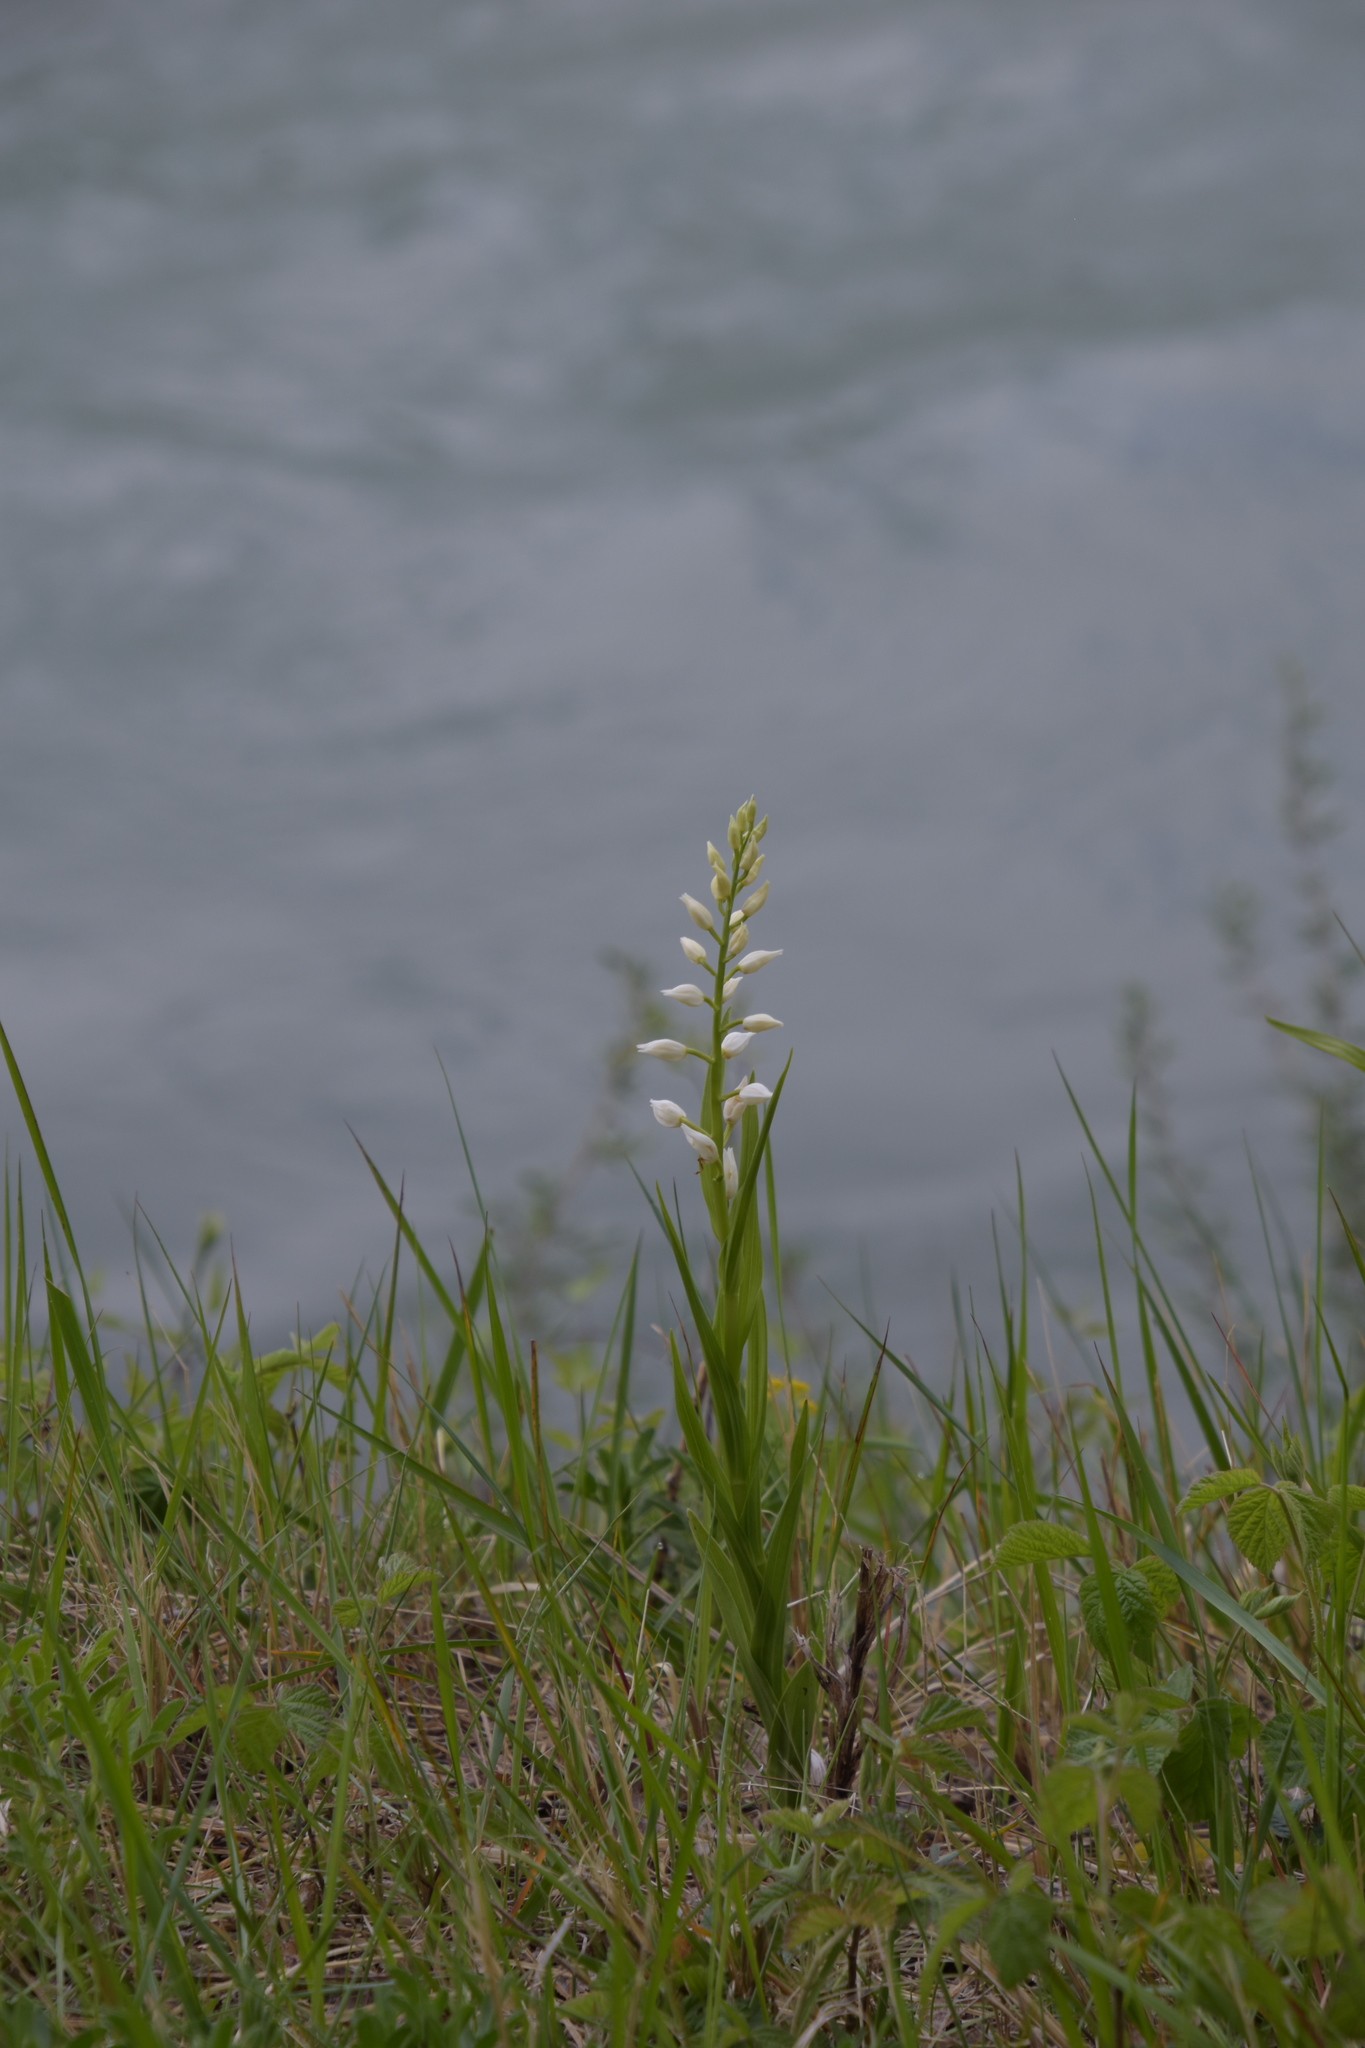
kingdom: Plantae
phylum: Tracheophyta
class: Liliopsida
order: Asparagales
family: Orchidaceae
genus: Cephalanthera
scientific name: Cephalanthera longifolia
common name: Narrow-leaved helleborine
